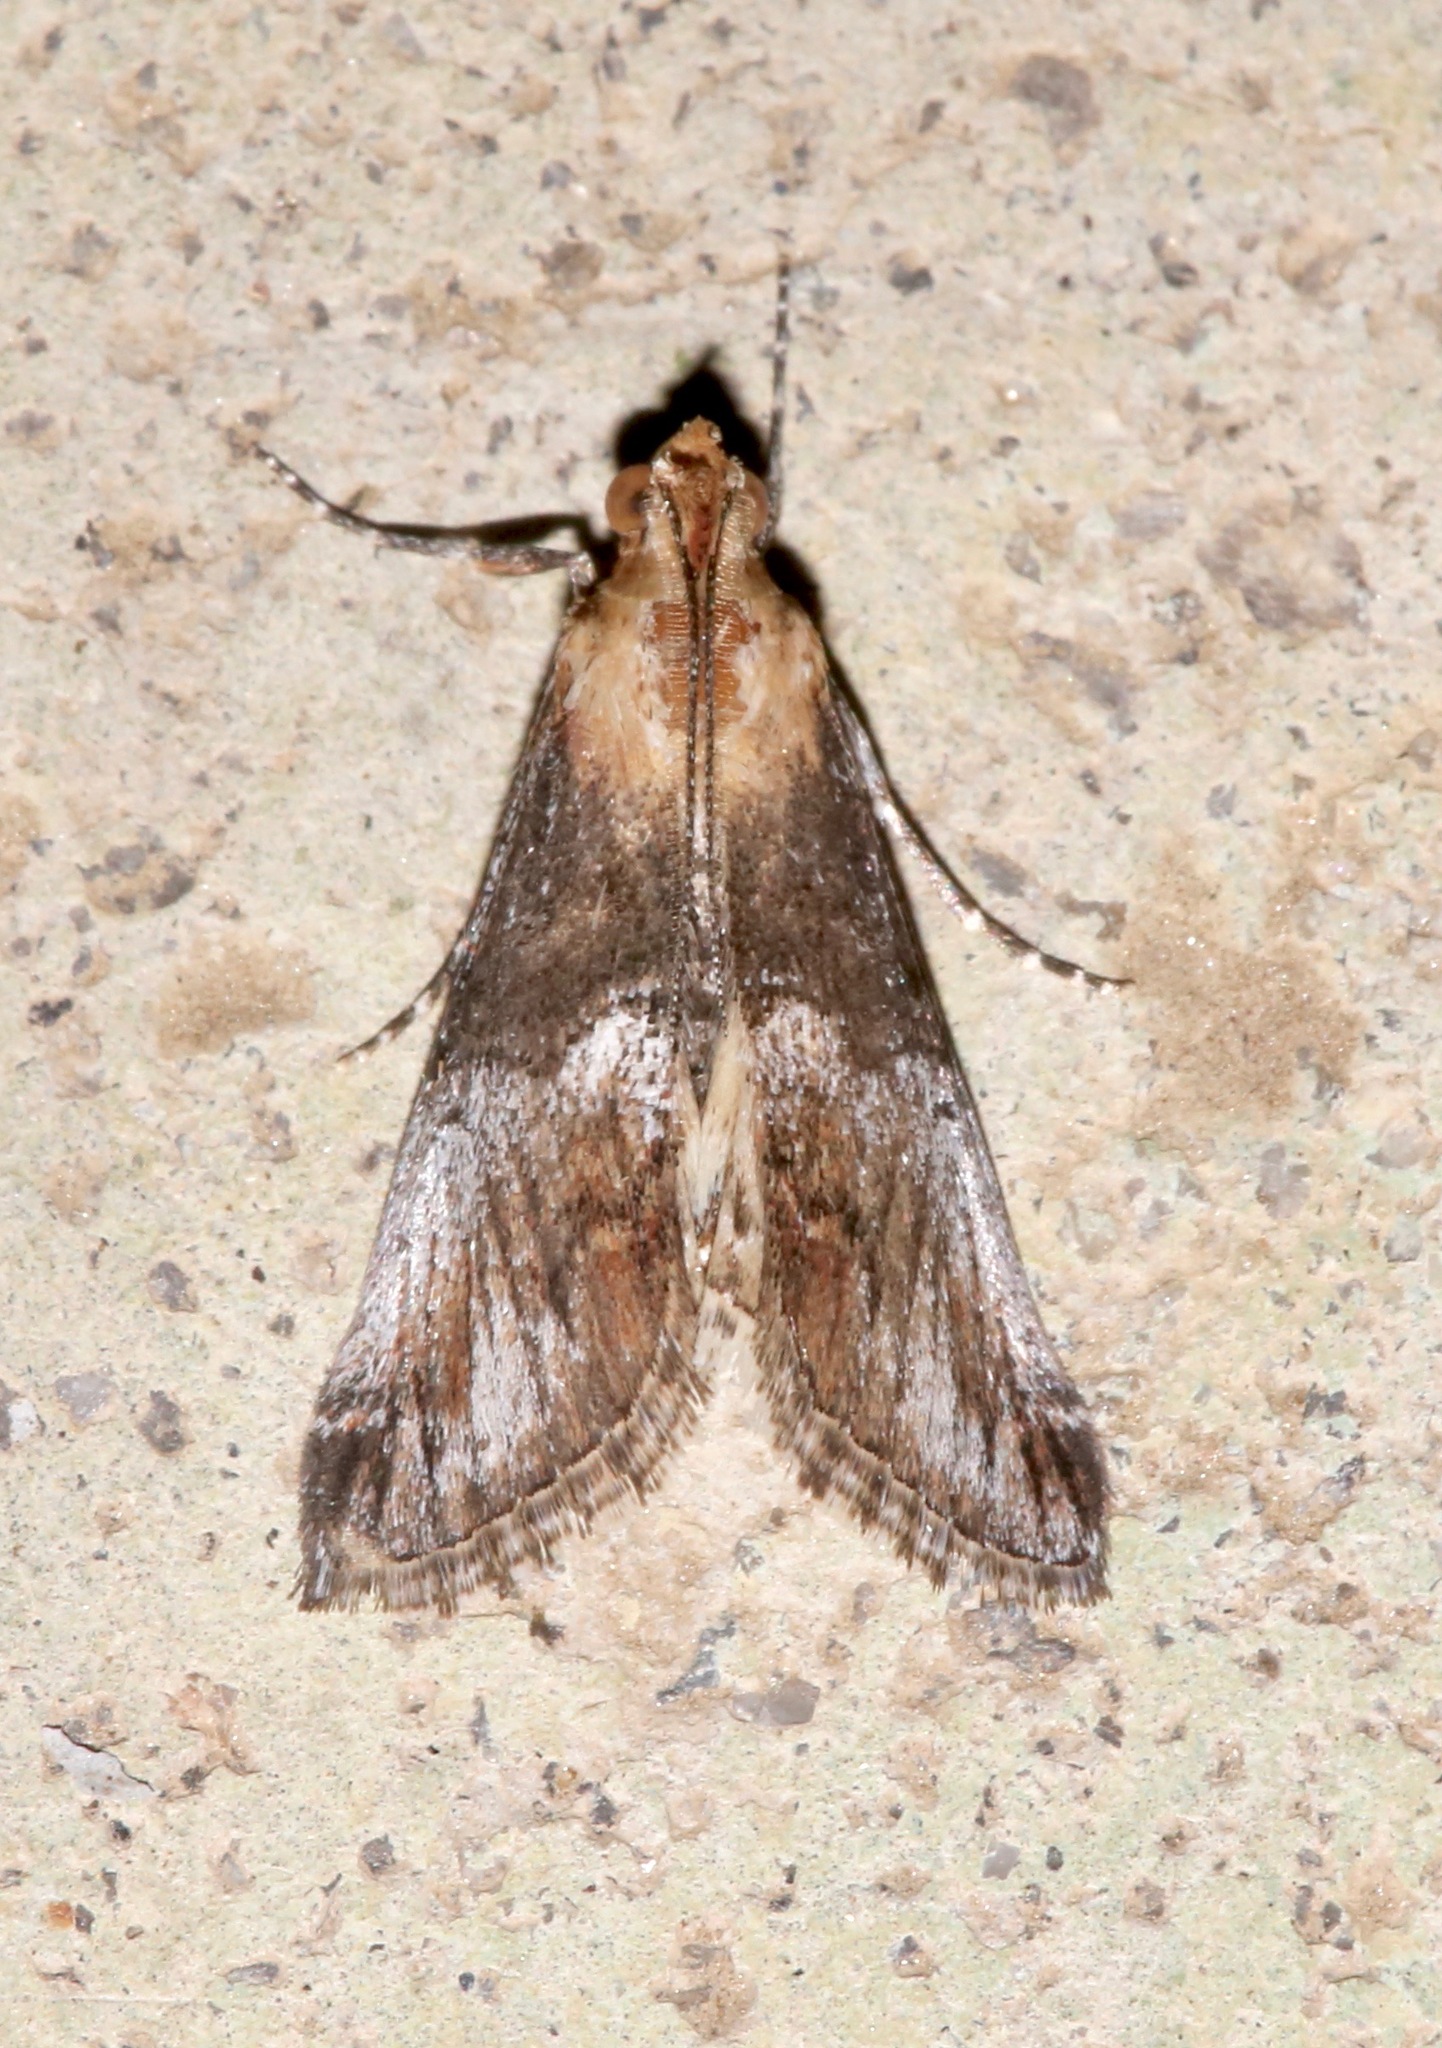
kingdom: Animalia
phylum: Arthropoda
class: Insecta
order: Lepidoptera
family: Pyralidae
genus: Toripalpus
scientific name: Toripalpus trabalis
